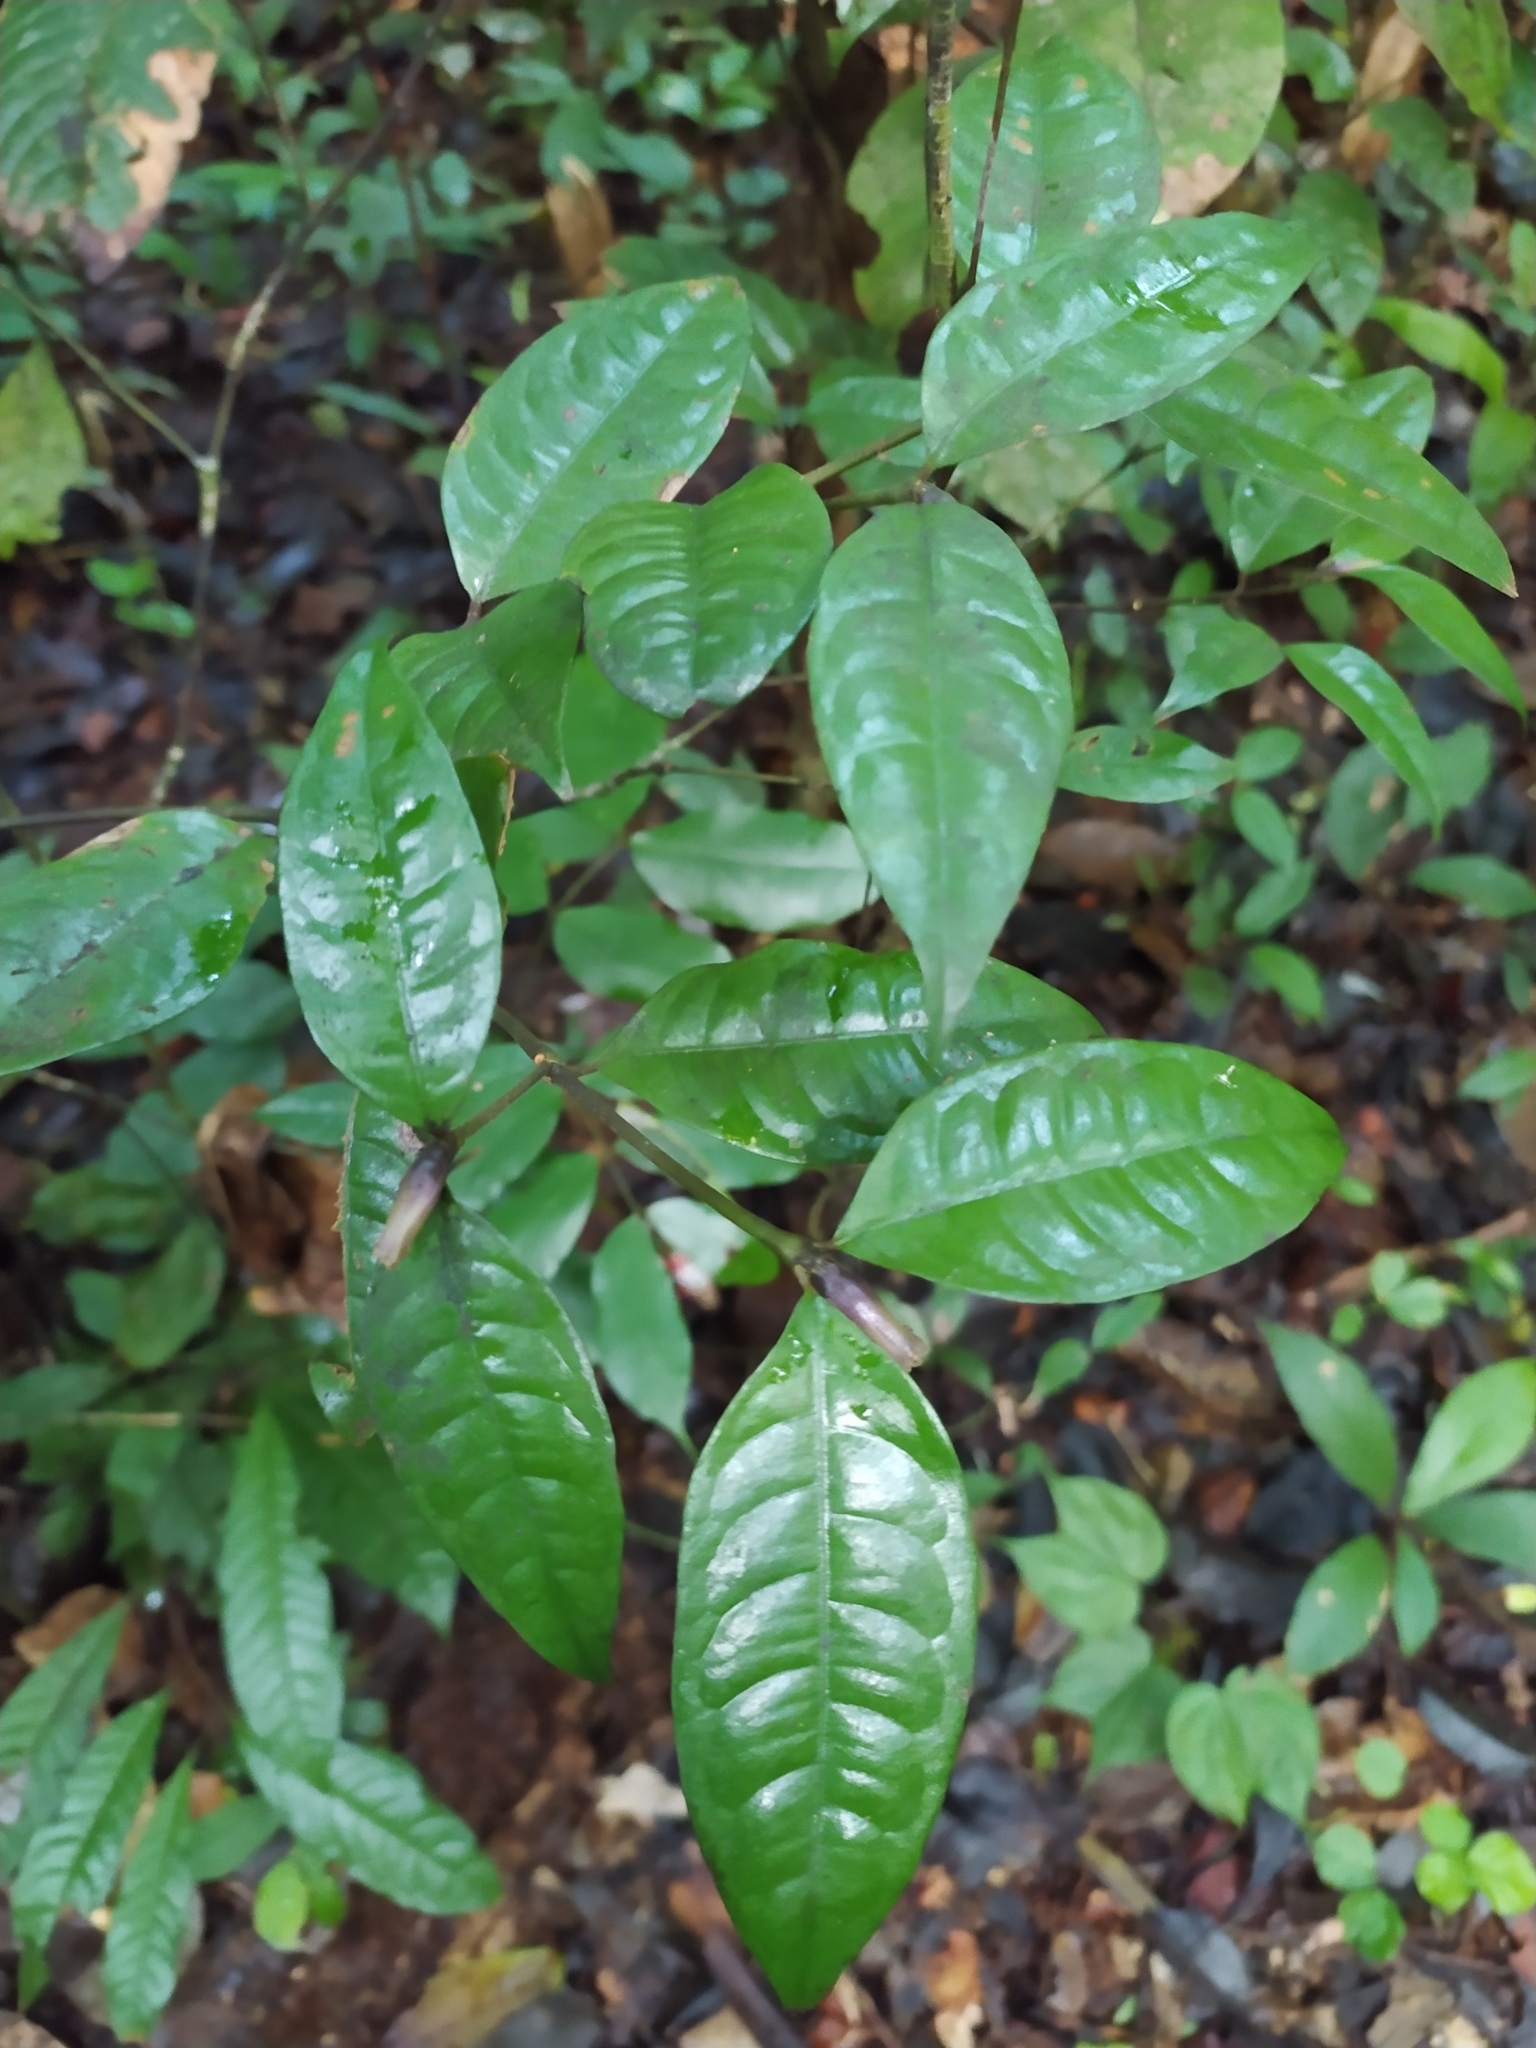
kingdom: Plantae
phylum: Tracheophyta
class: Magnoliopsida
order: Gentianales
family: Rubiaceae
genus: Palicourea
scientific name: Palicourea oblonga
